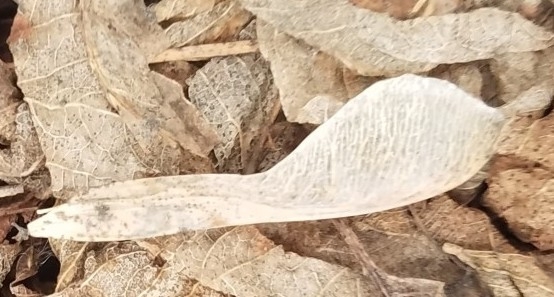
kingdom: Plantae
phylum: Tracheophyta
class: Magnoliopsida
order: Sapindales
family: Sapindaceae
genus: Acer
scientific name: Acer negundo
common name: Ashleaf maple
